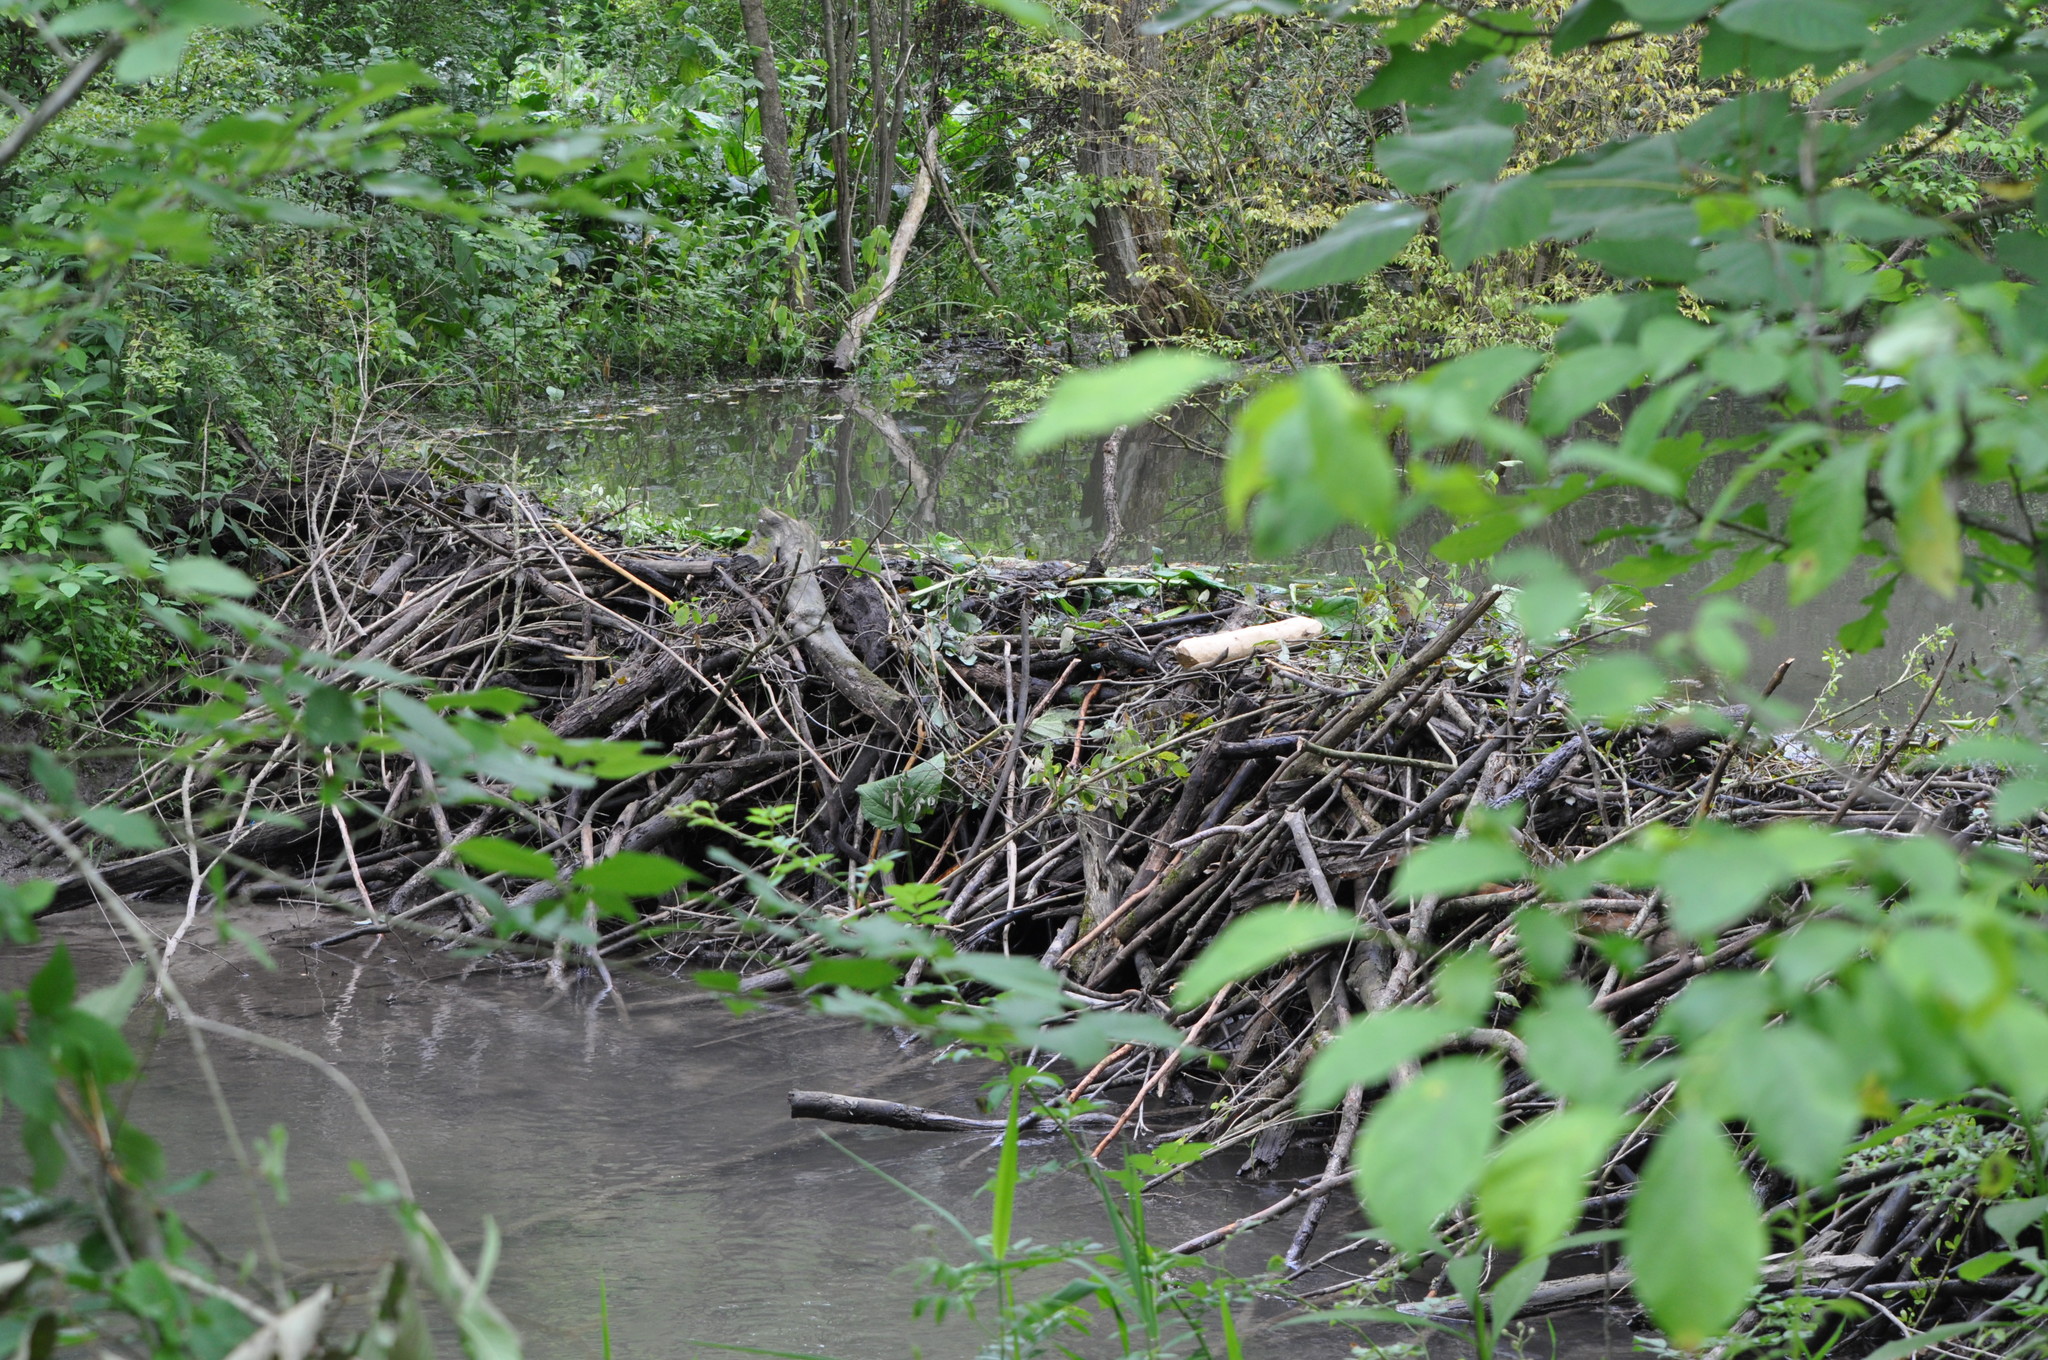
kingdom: Animalia
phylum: Chordata
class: Mammalia
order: Rodentia
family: Castoridae
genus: Castor
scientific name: Castor canadensis
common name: American beaver
